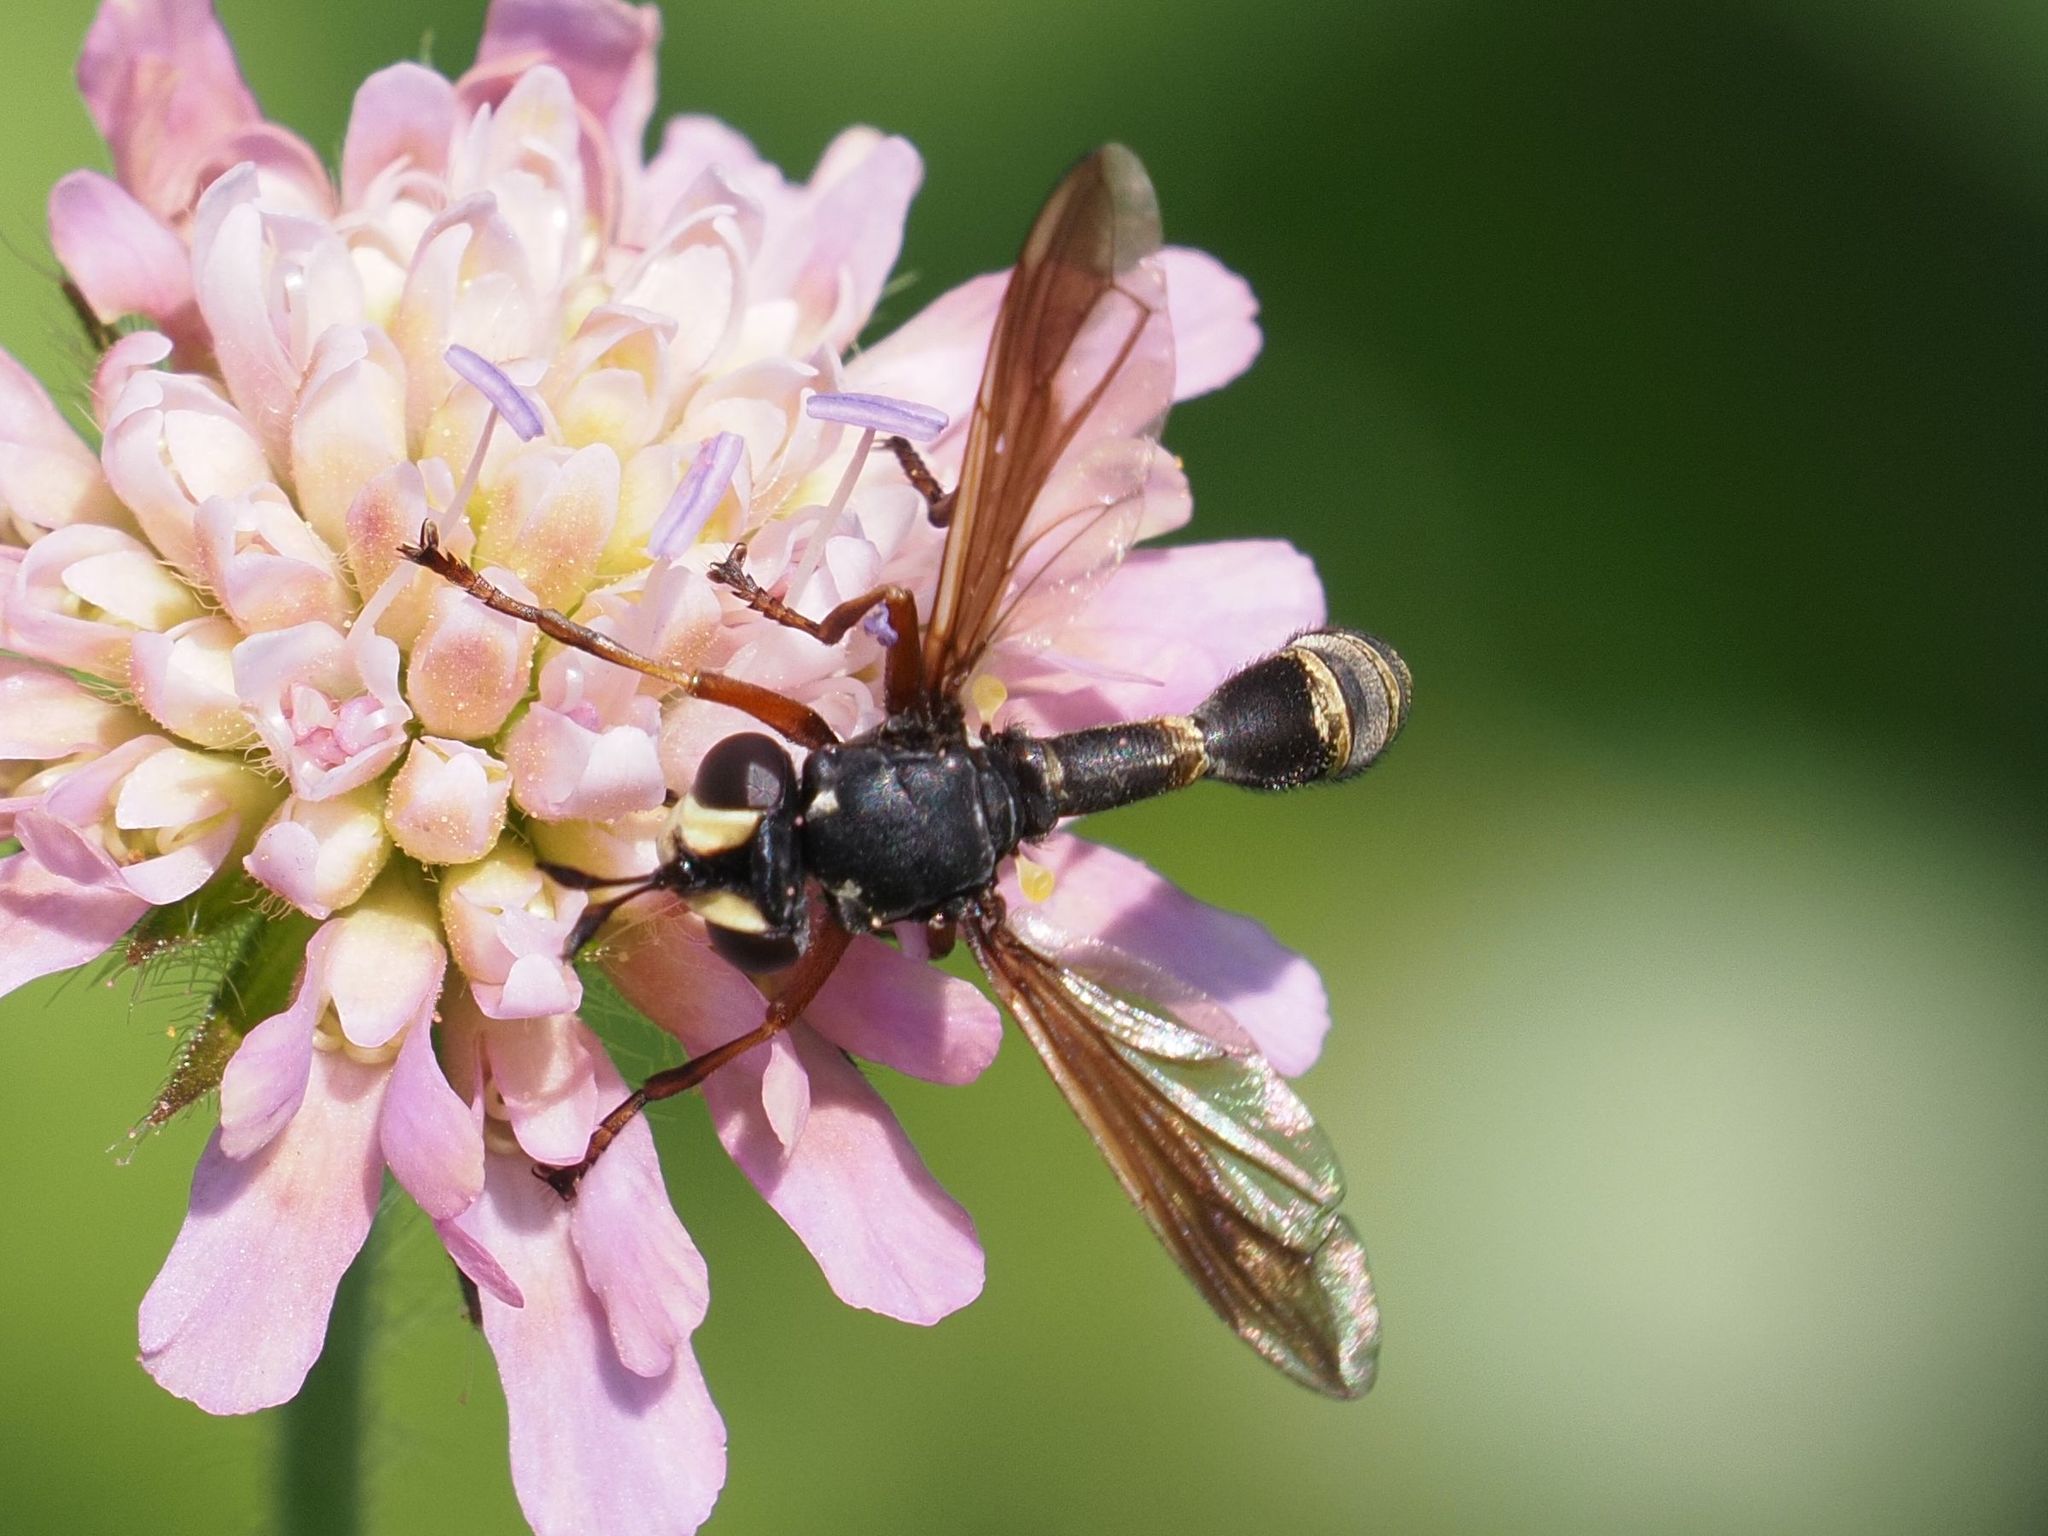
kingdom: Animalia
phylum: Arthropoda
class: Insecta
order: Diptera
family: Conopidae
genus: Physocephala
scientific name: Physocephala rufipes
